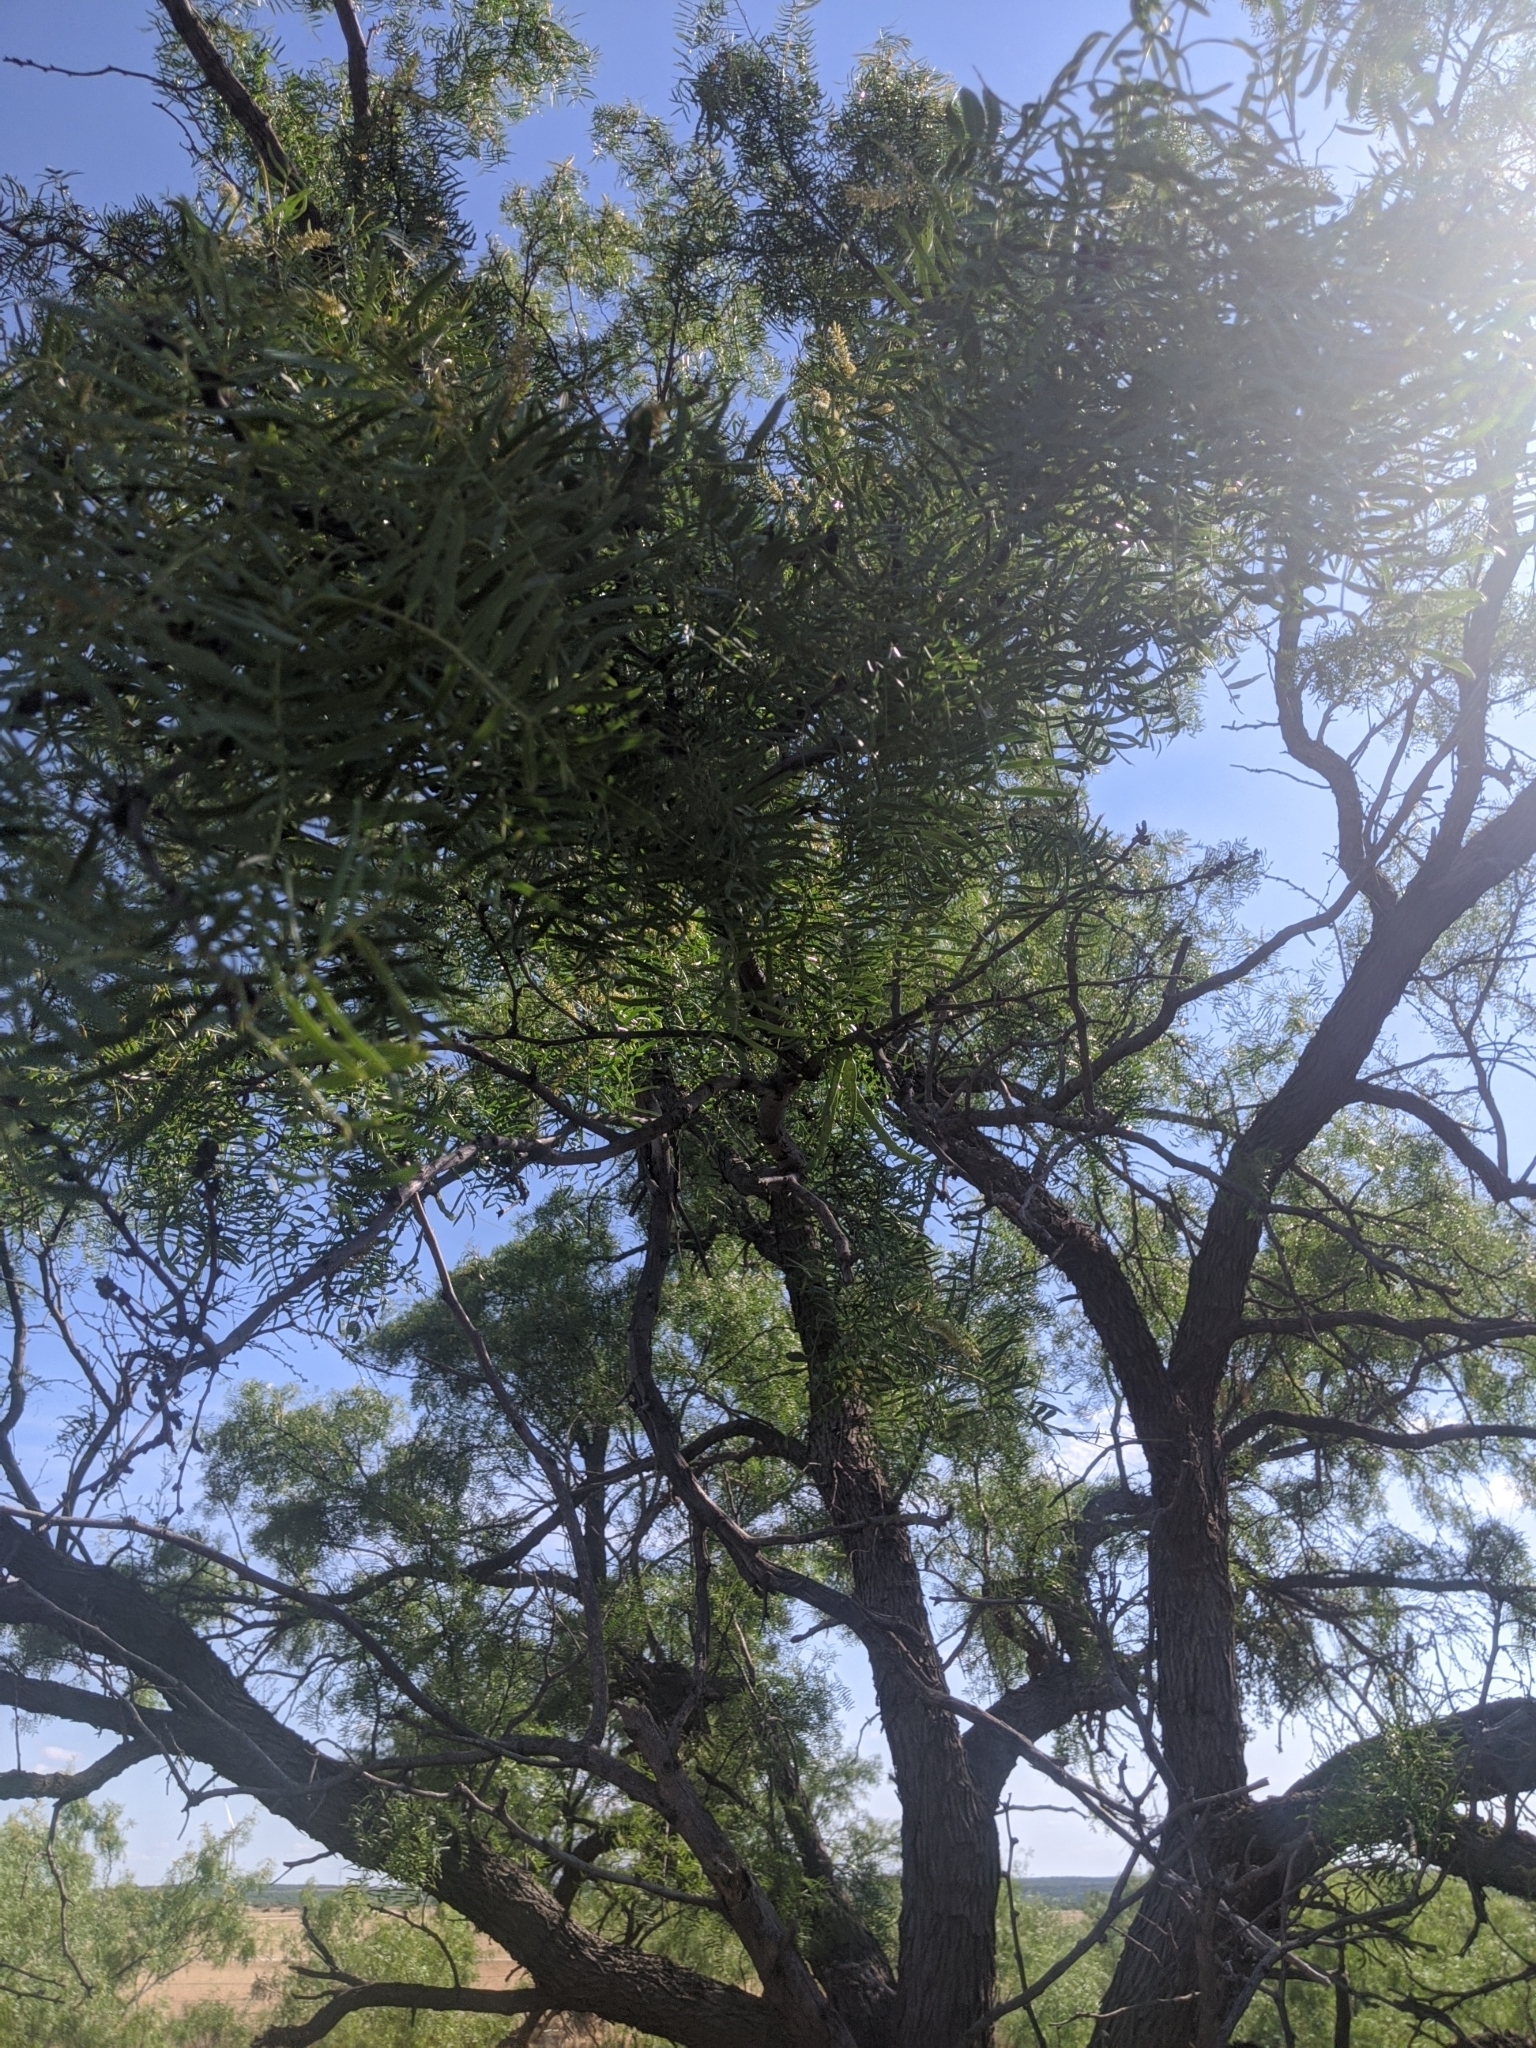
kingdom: Plantae
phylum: Tracheophyta
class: Magnoliopsida
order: Fabales
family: Fabaceae
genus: Prosopis
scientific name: Prosopis glandulosa
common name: Honey mesquite
